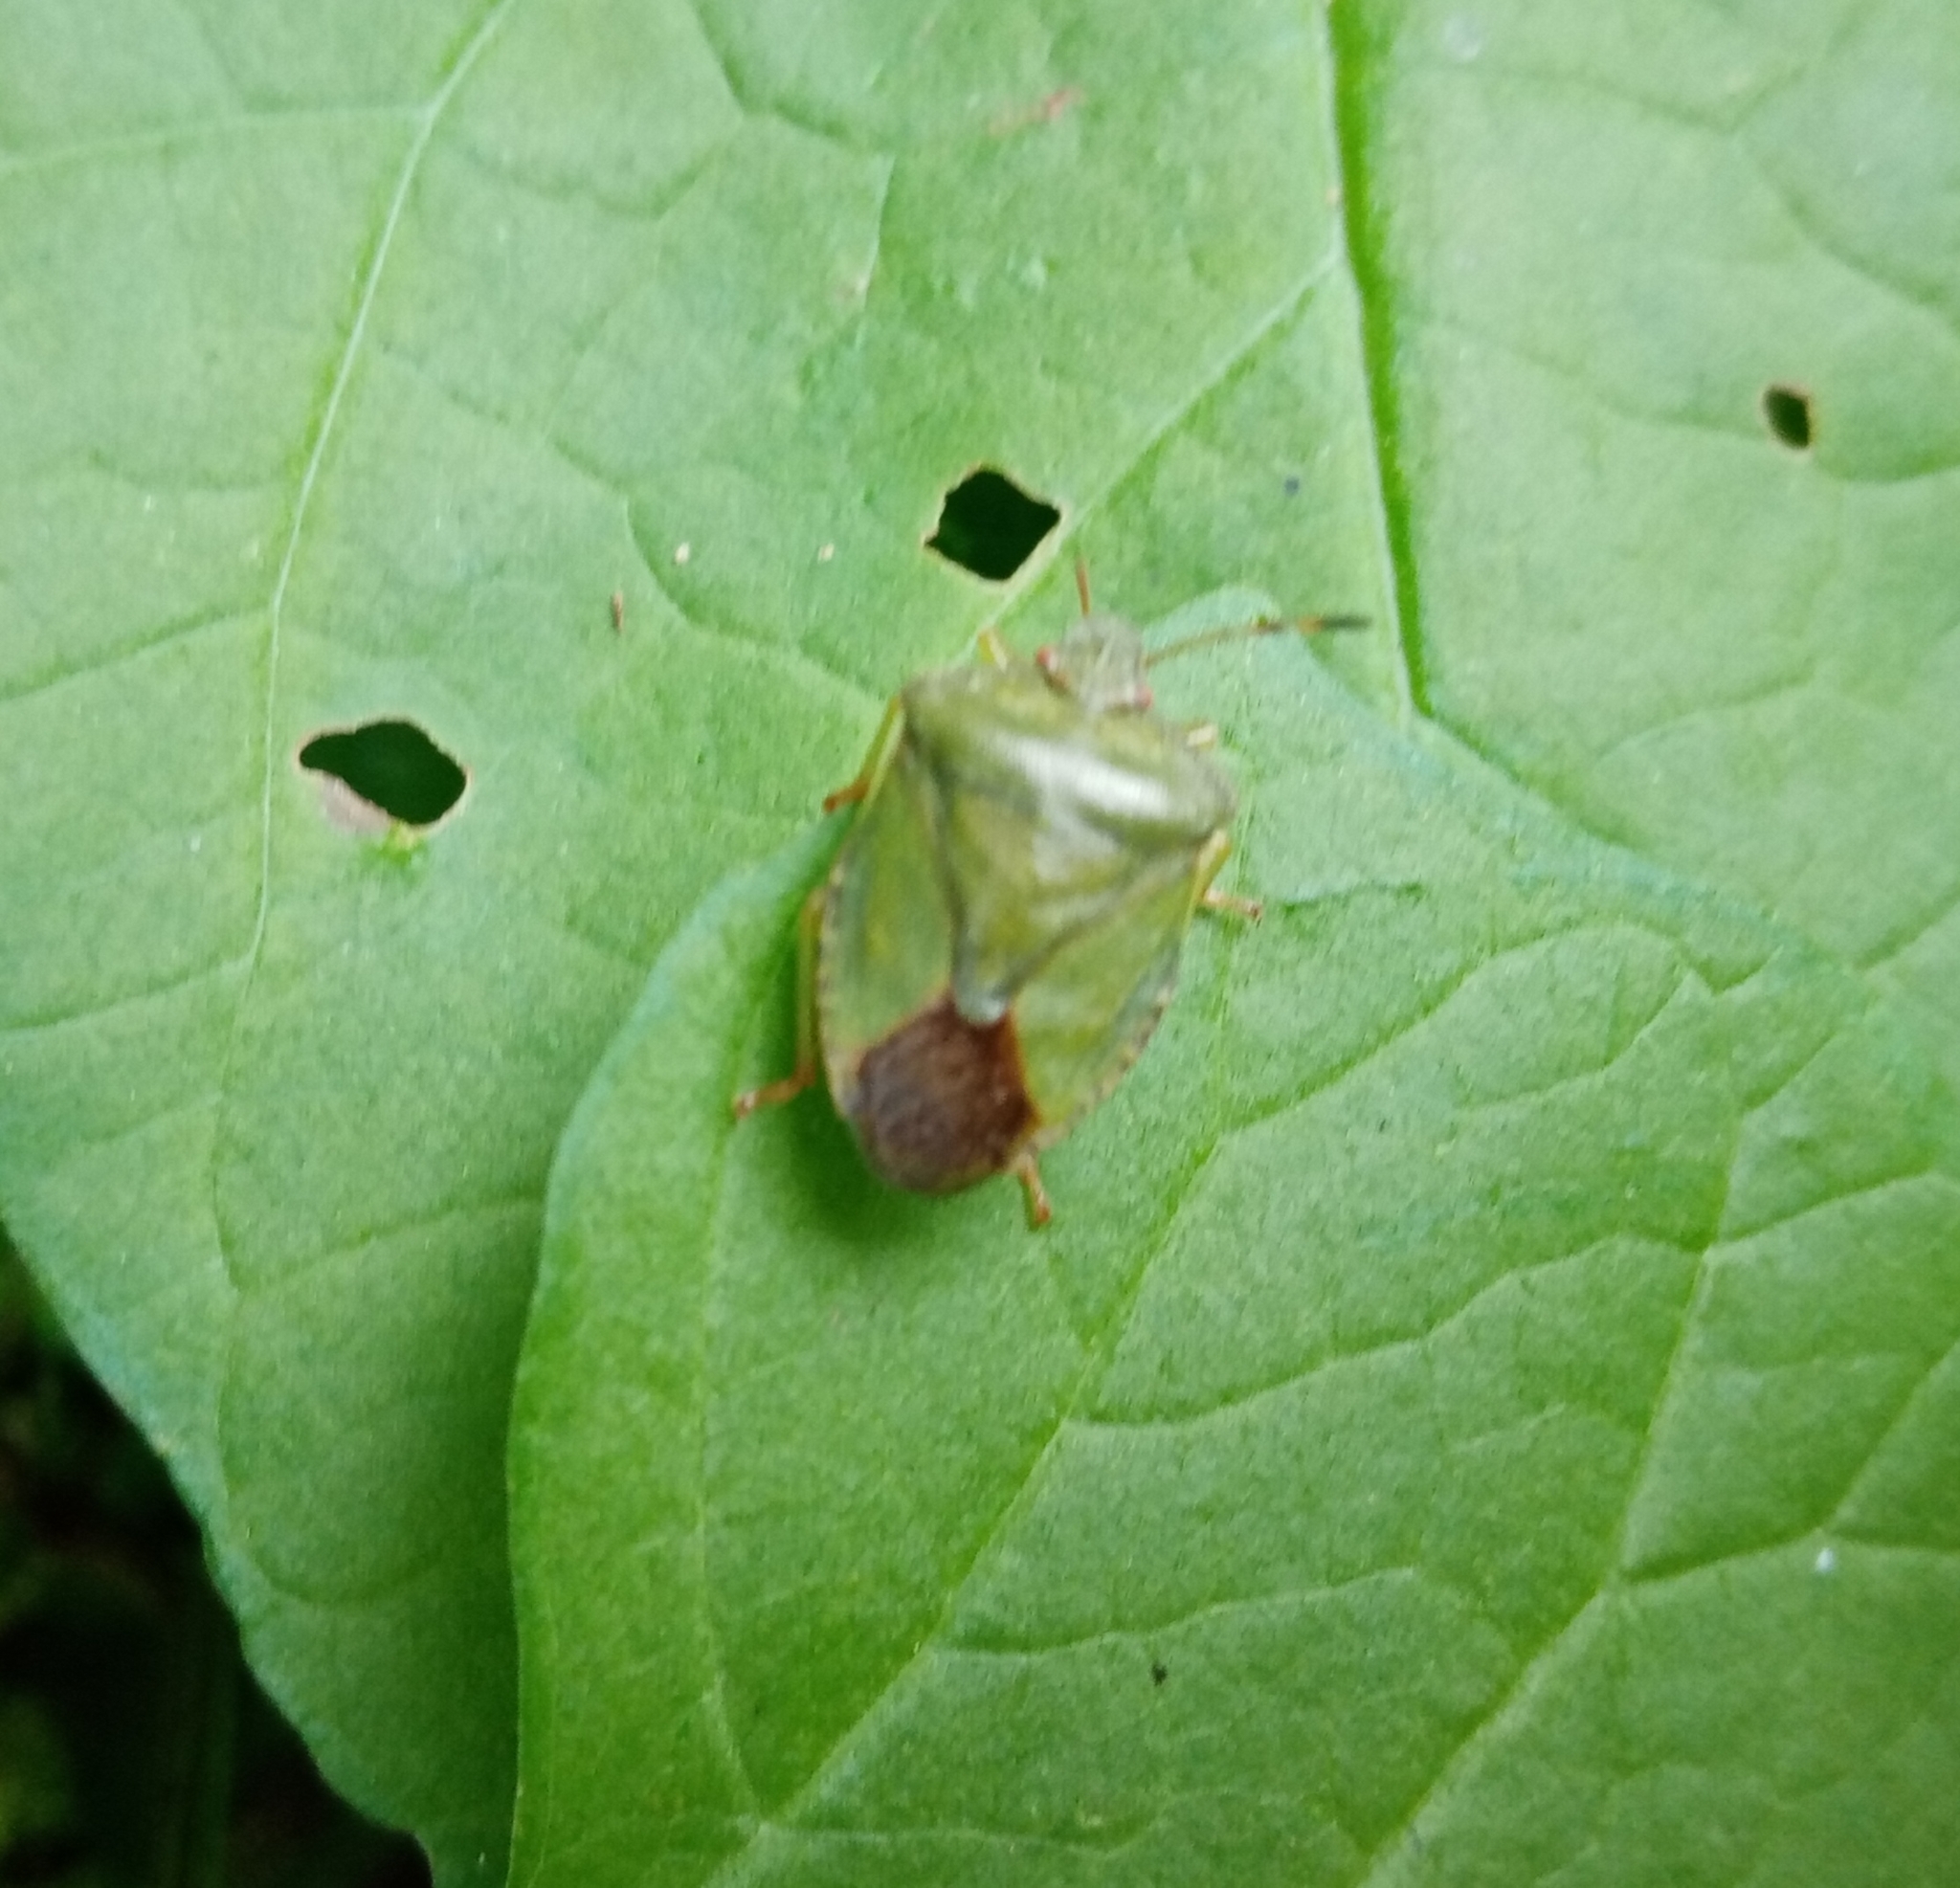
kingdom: Animalia
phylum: Arthropoda
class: Insecta
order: Hemiptera
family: Pentatomidae
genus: Palomena
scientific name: Palomena prasina
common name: Green shieldbug
